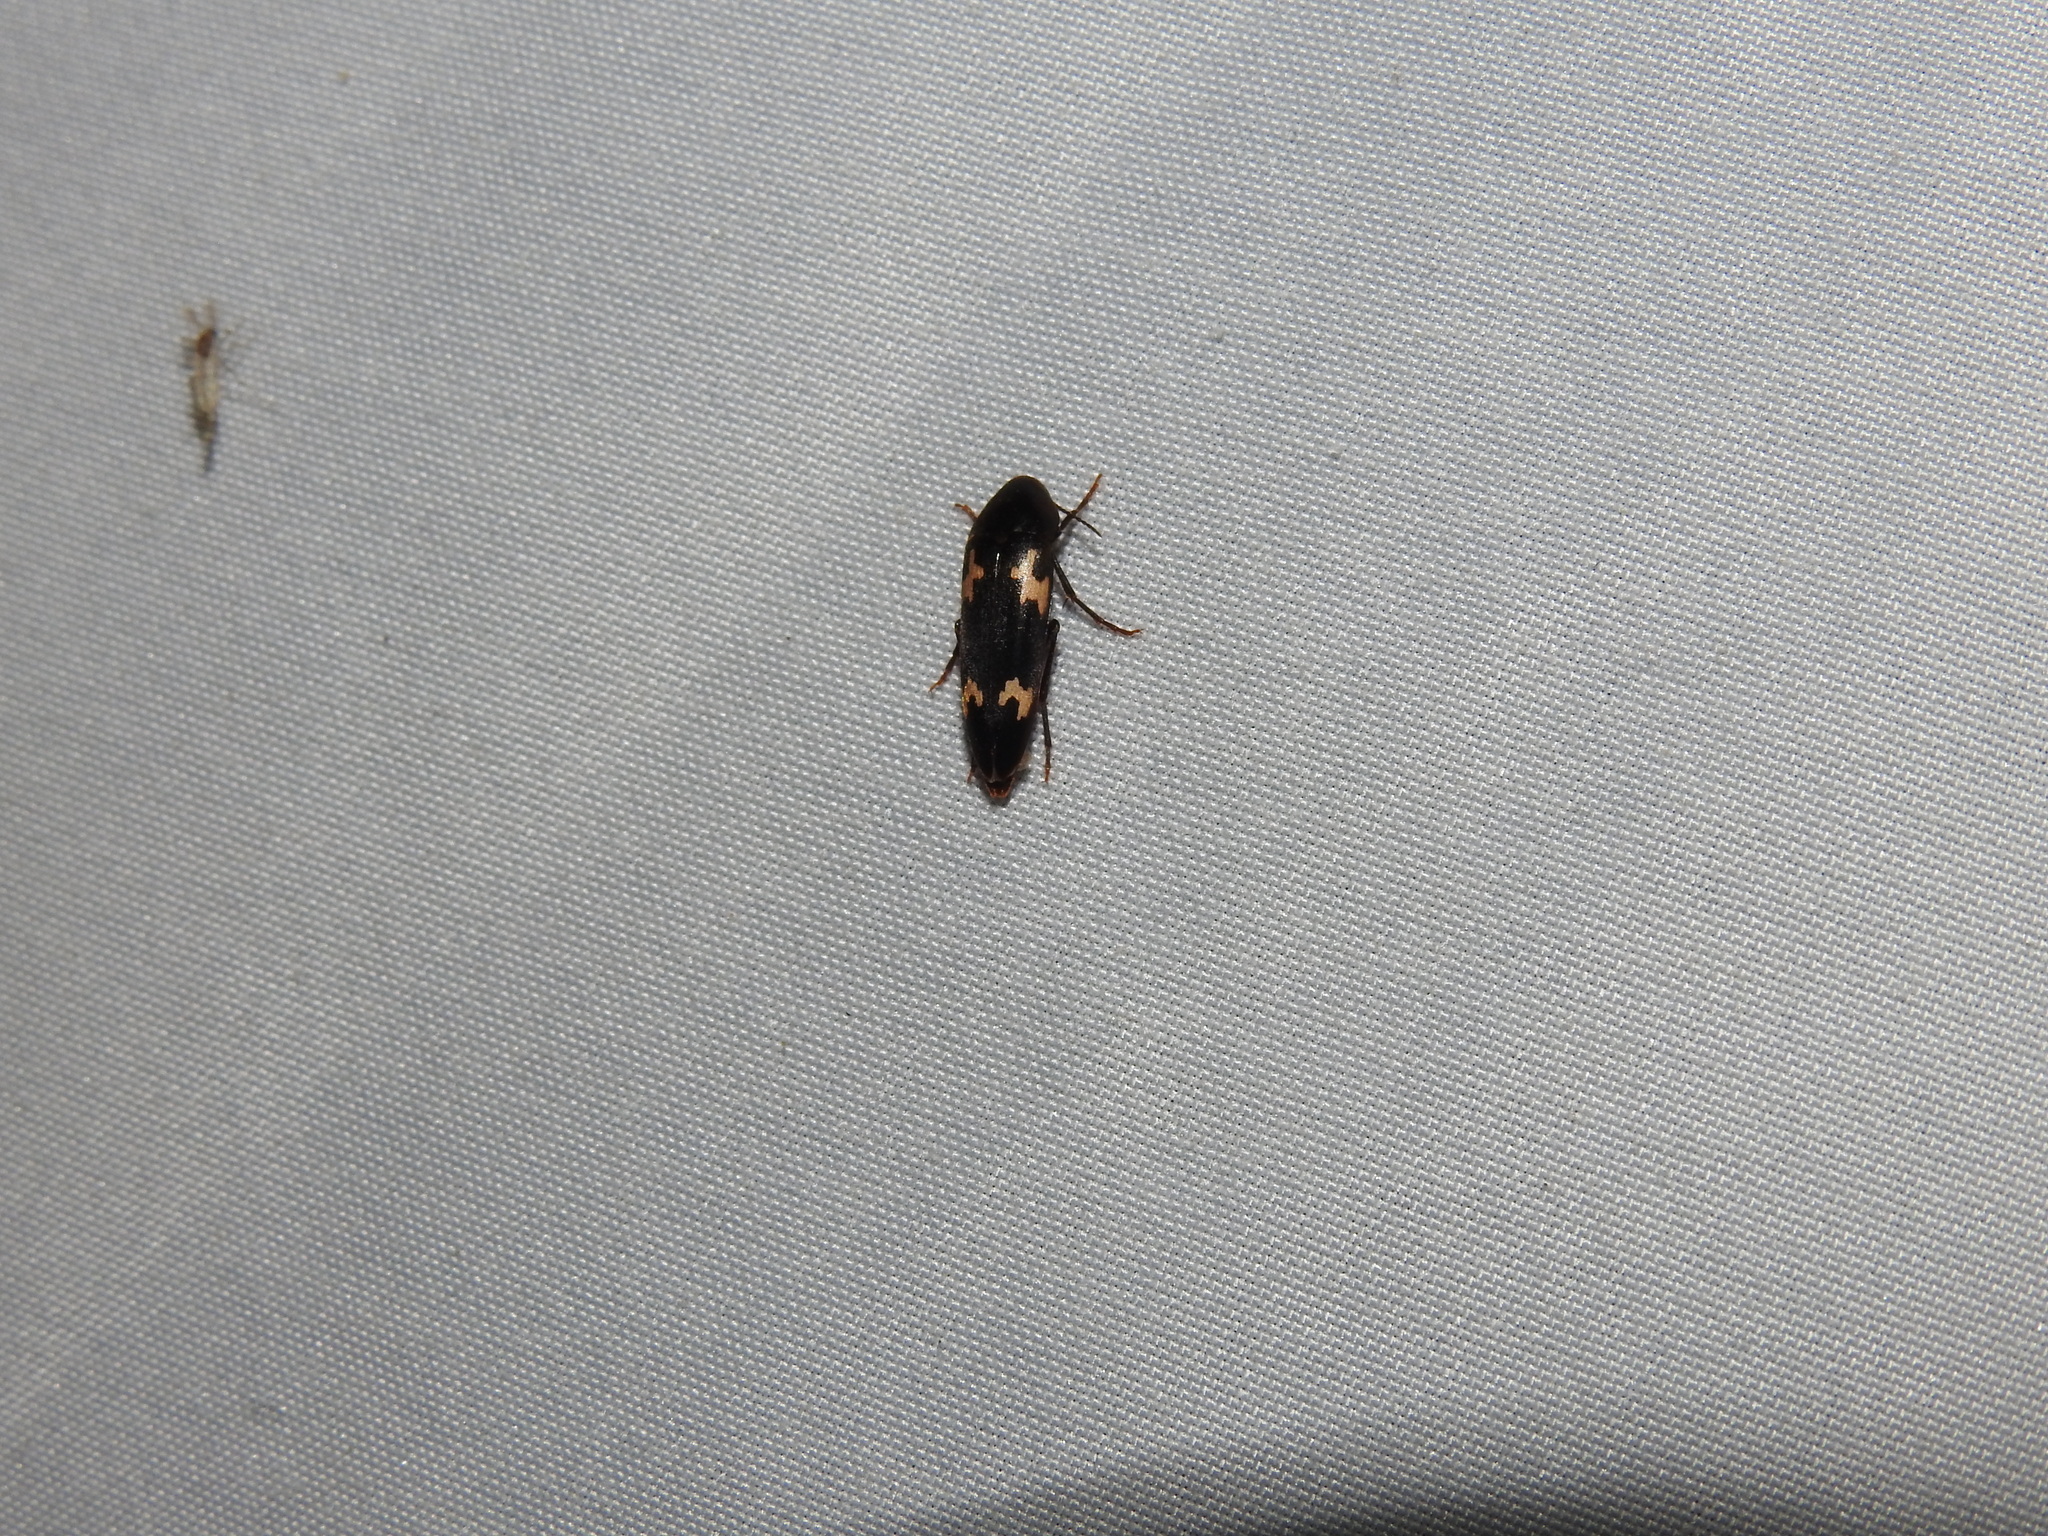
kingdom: Animalia
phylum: Arthropoda
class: Insecta
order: Coleoptera
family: Melandryidae
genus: Dircaea
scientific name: Dircaea liturata
